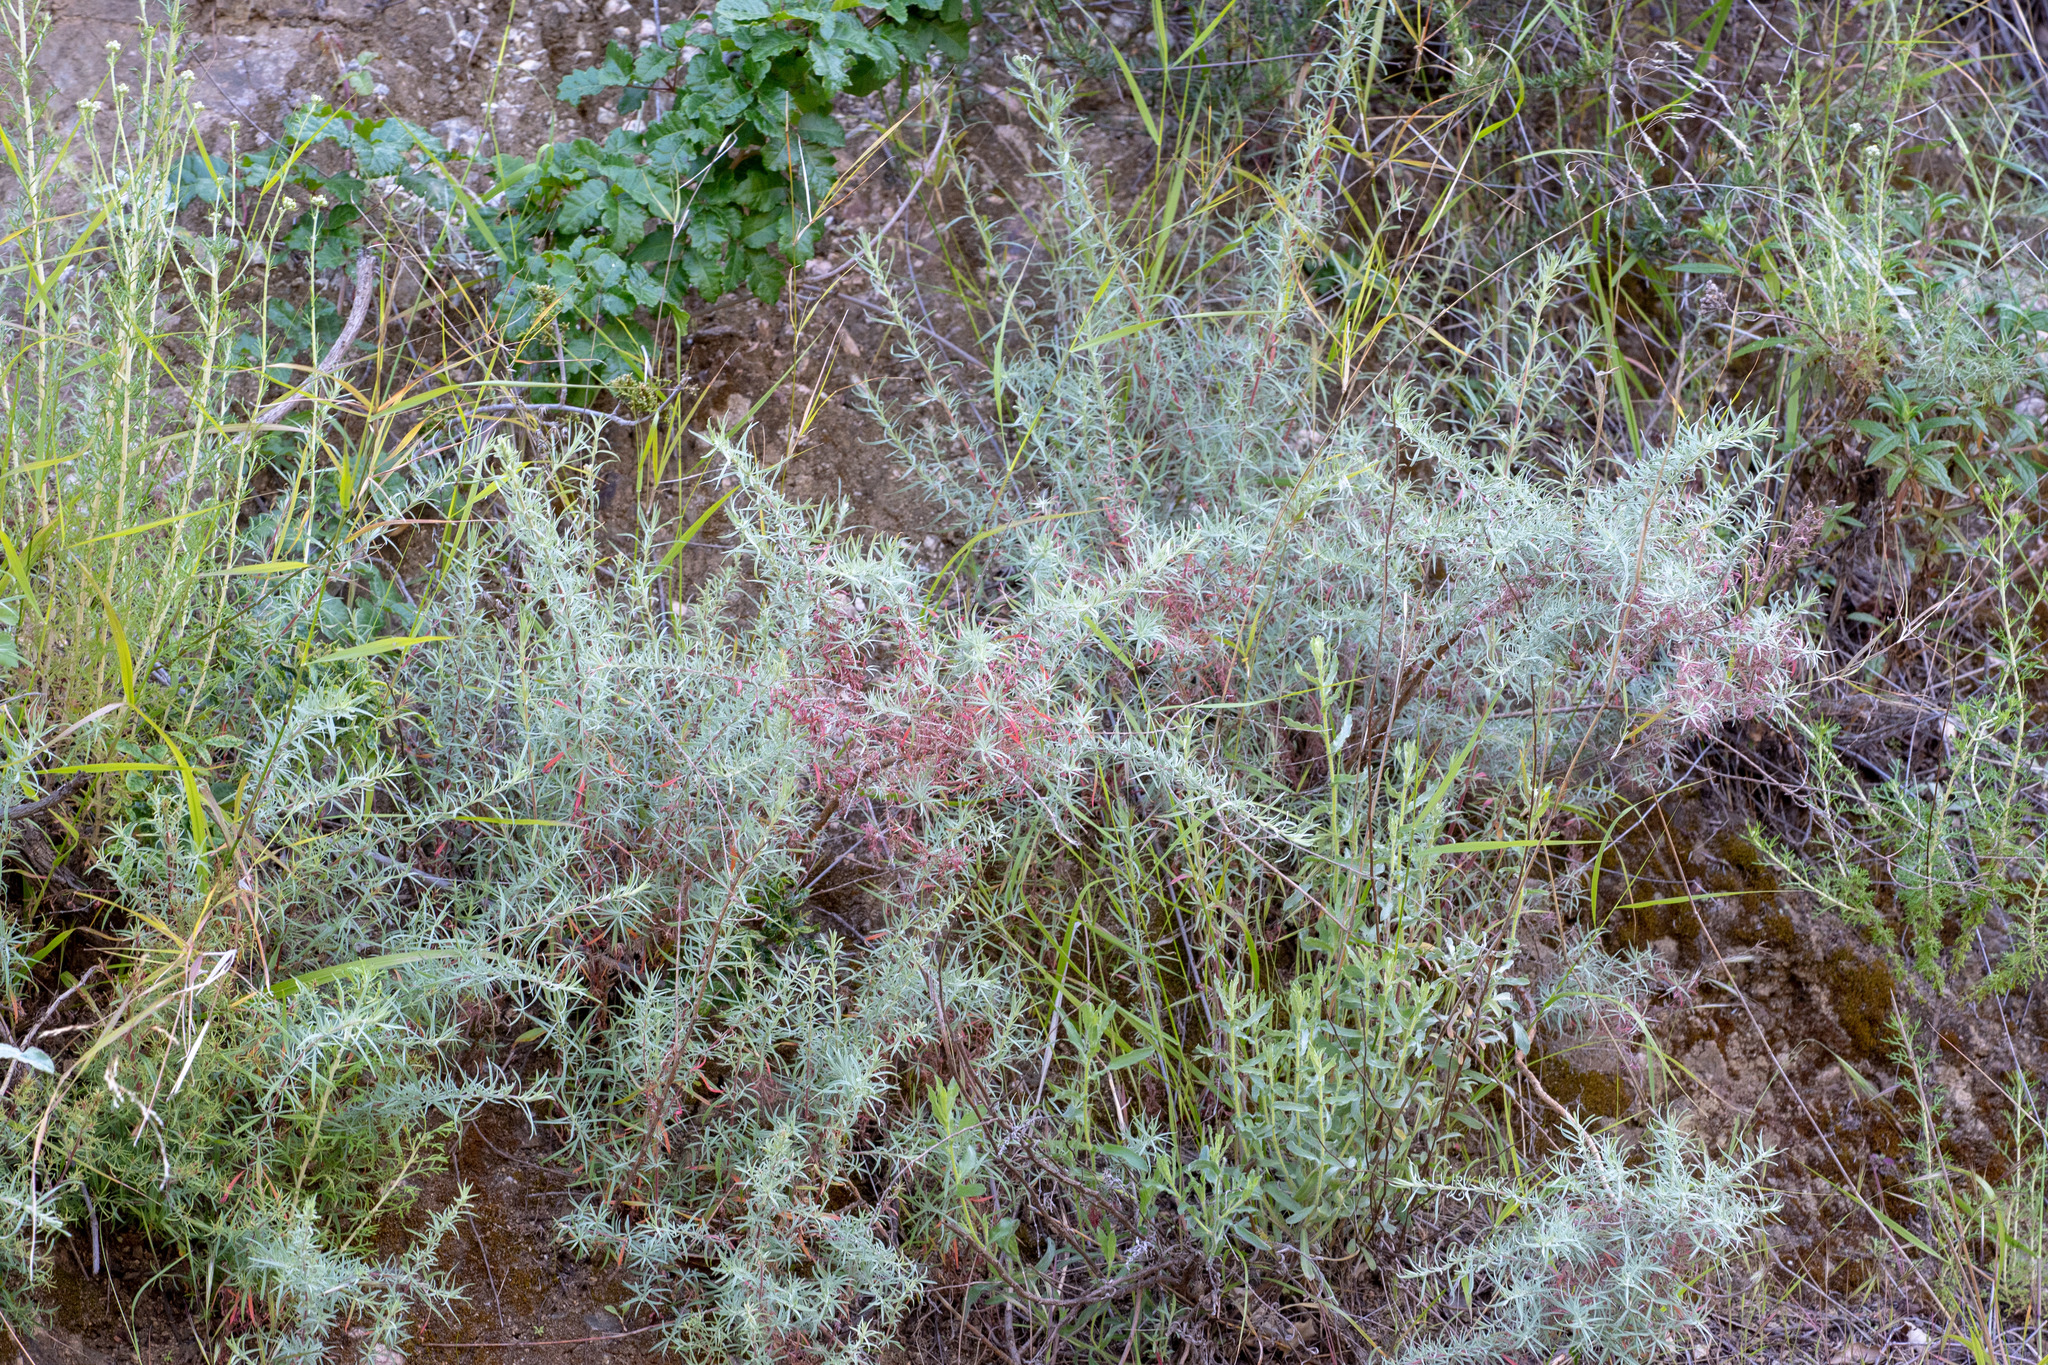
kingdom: Plantae
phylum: Tracheophyta
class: Magnoliopsida
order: Myrtales
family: Onagraceae
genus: Epilobium
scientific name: Epilobium canum
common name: California-fuchsia
